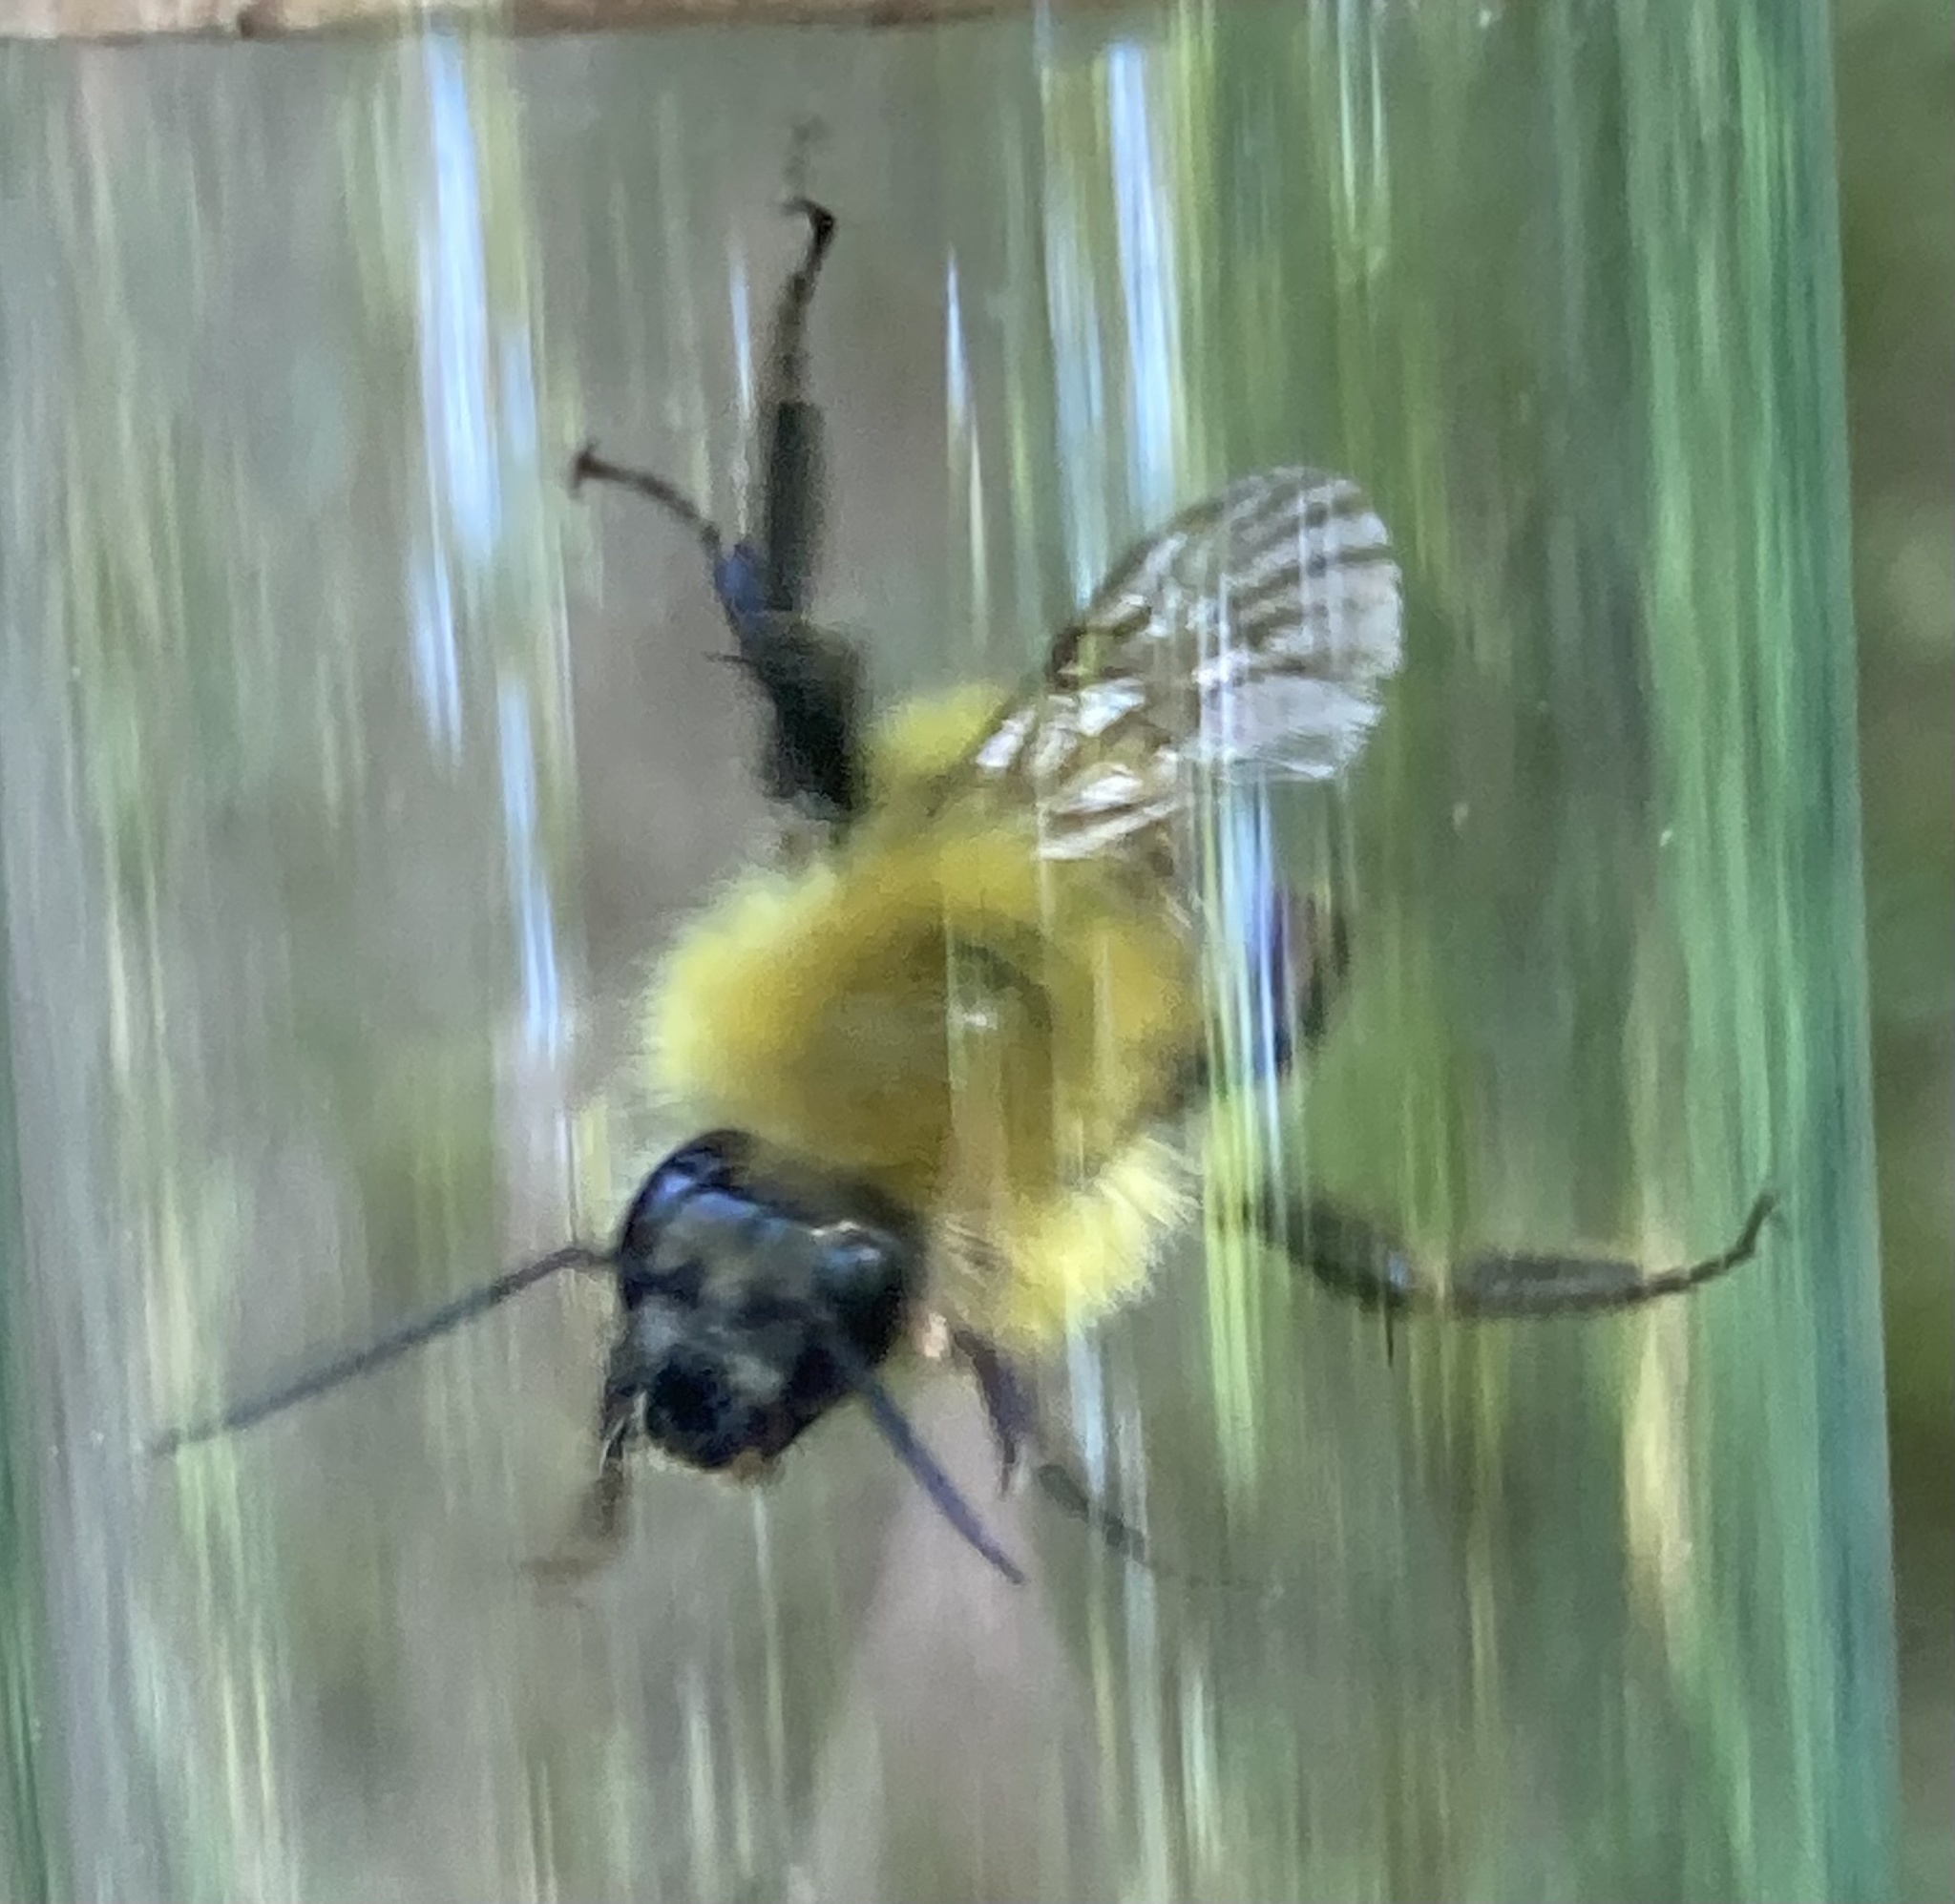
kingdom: Animalia
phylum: Arthropoda
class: Insecta
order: Hymenoptera
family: Apidae
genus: Bombus
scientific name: Bombus perplexus
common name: Confusing bumble bee
